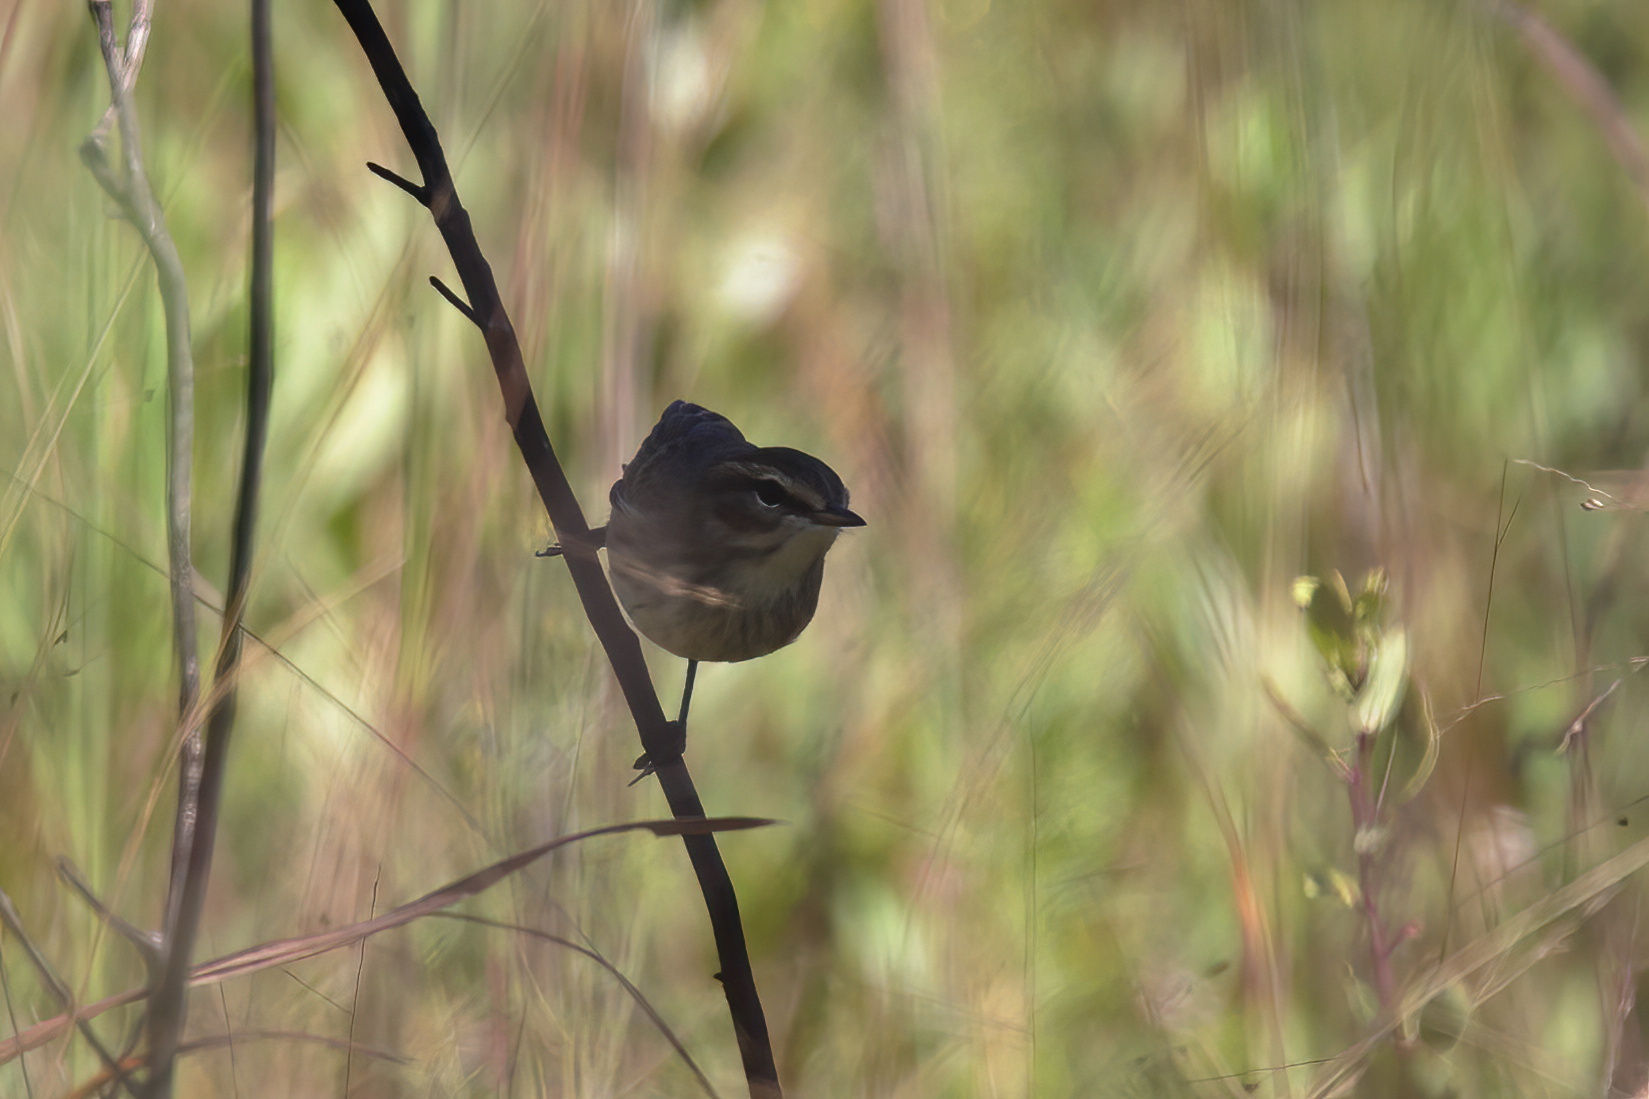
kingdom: Animalia
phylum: Chordata
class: Aves
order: Passeriformes
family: Parulidae
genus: Setophaga
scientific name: Setophaga palmarum
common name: Palm warbler
